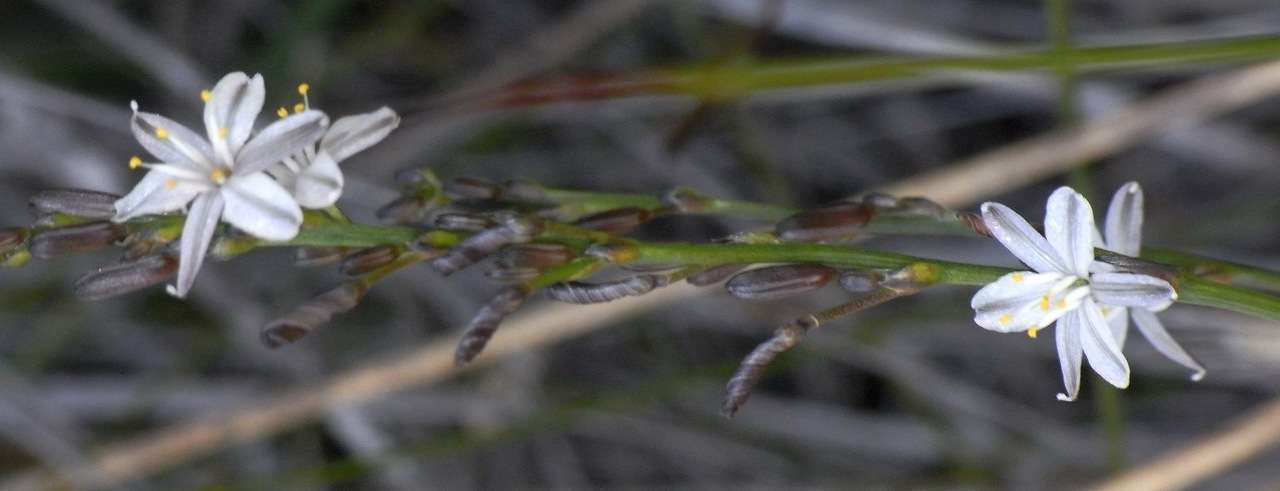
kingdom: Plantae
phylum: Tracheophyta
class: Liliopsida
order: Asparagales
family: Asphodelaceae
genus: Caesia
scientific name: Caesia parviflora
